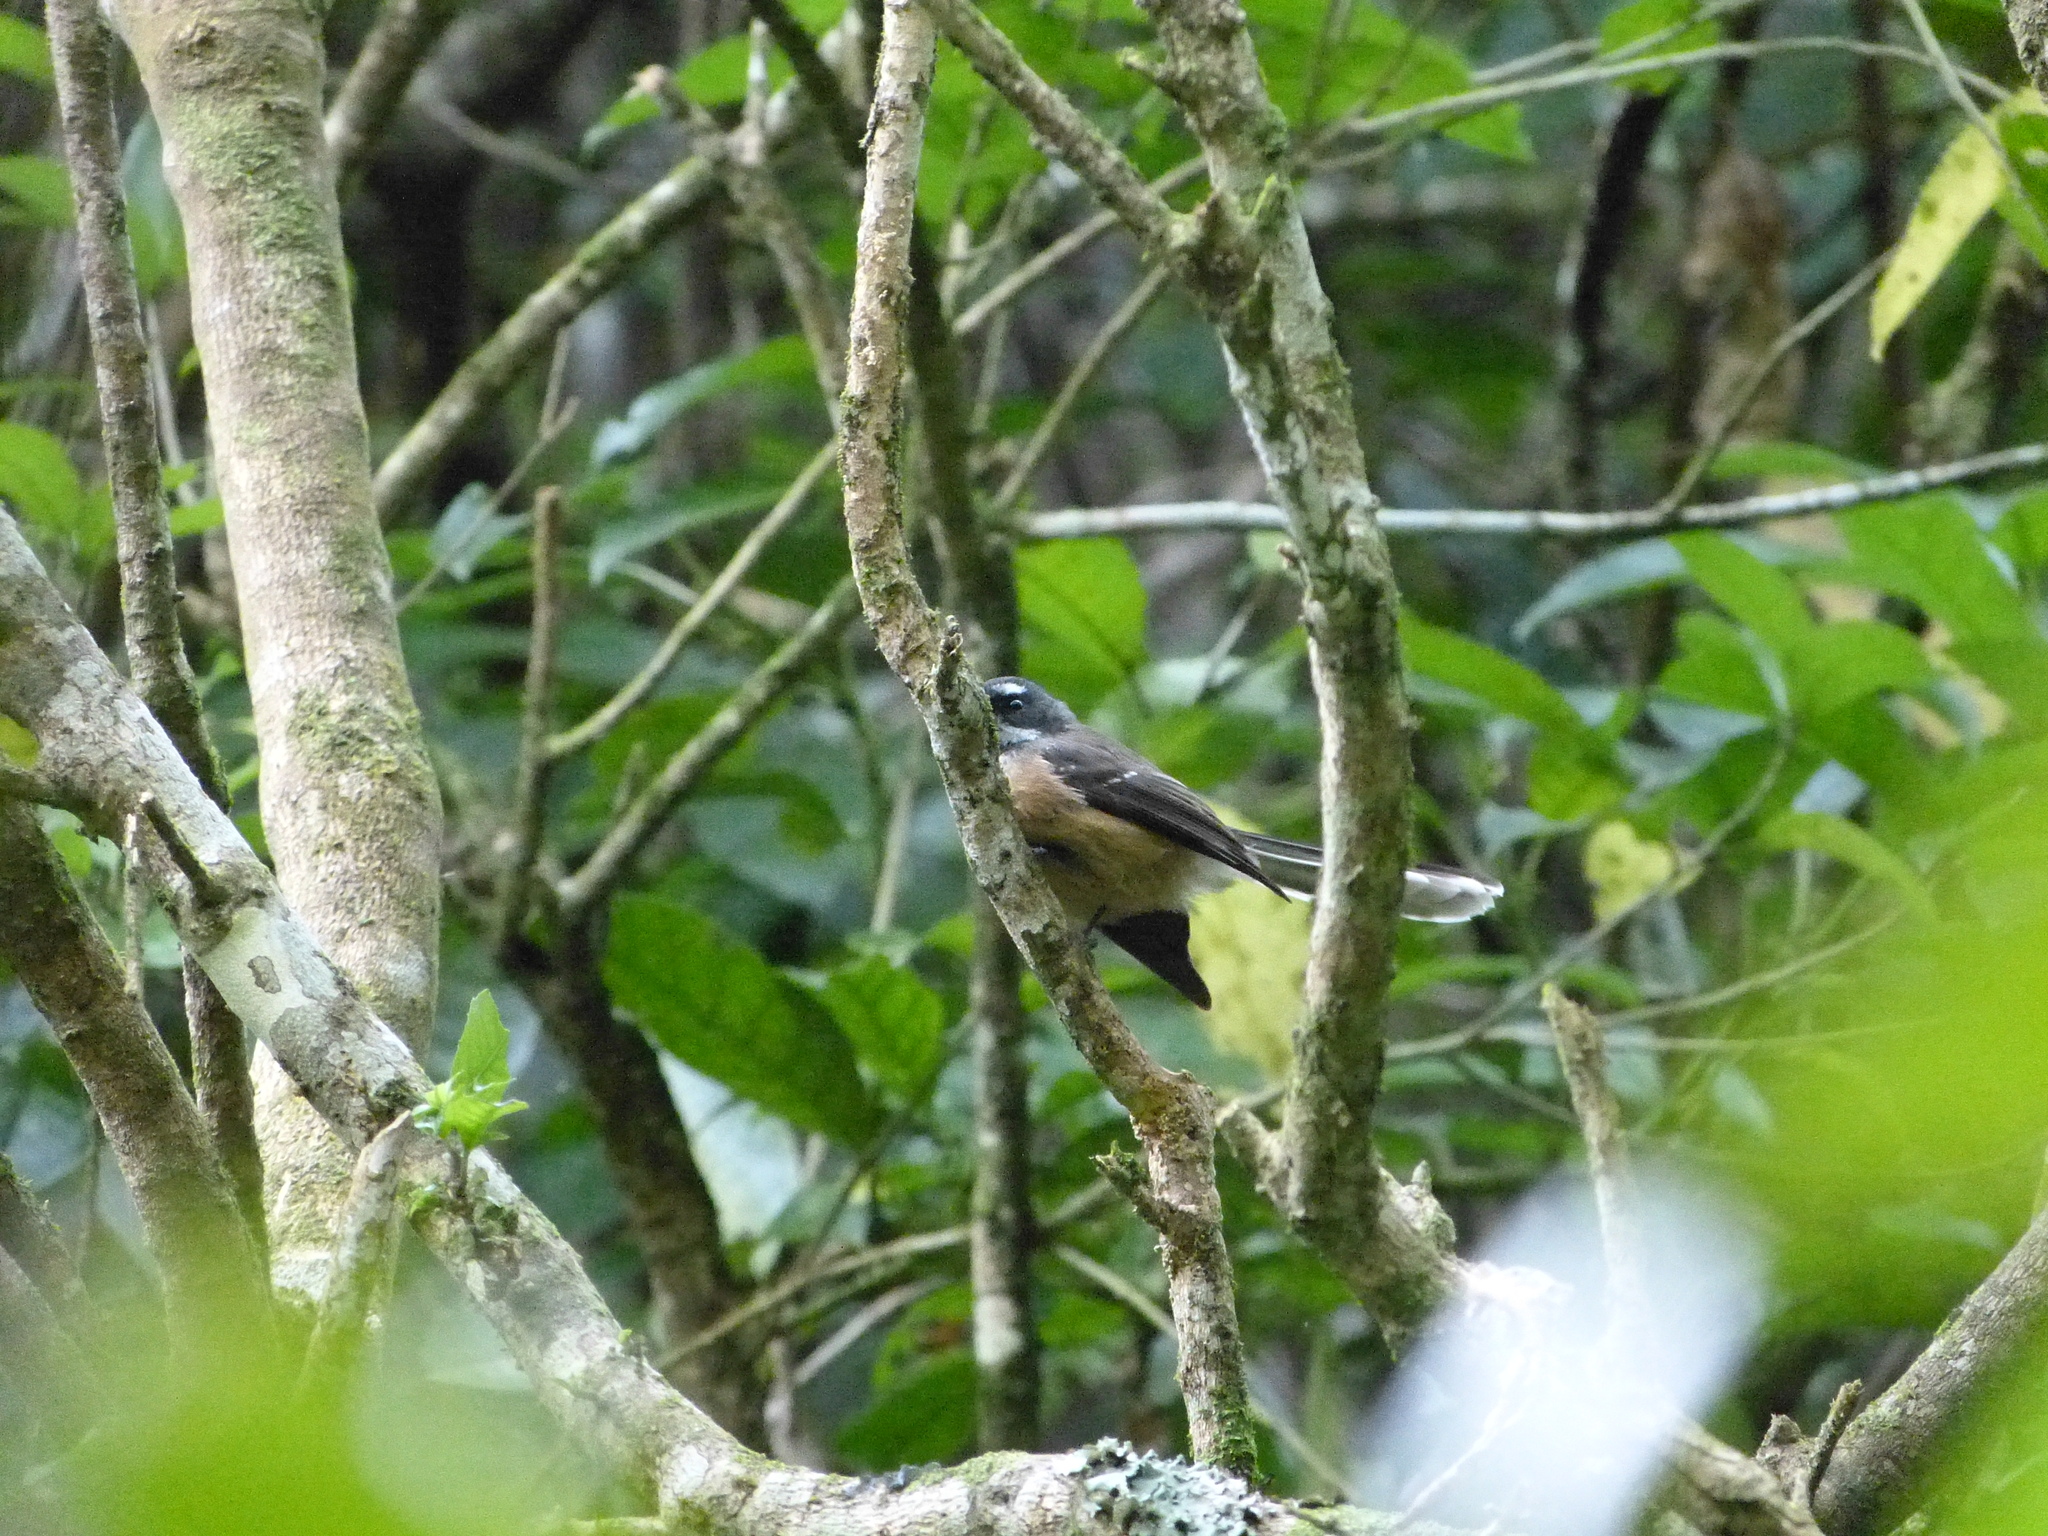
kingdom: Animalia
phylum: Chordata
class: Aves
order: Passeriformes
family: Rhipiduridae
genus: Rhipidura
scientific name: Rhipidura fuliginosa
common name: New zealand fantail
